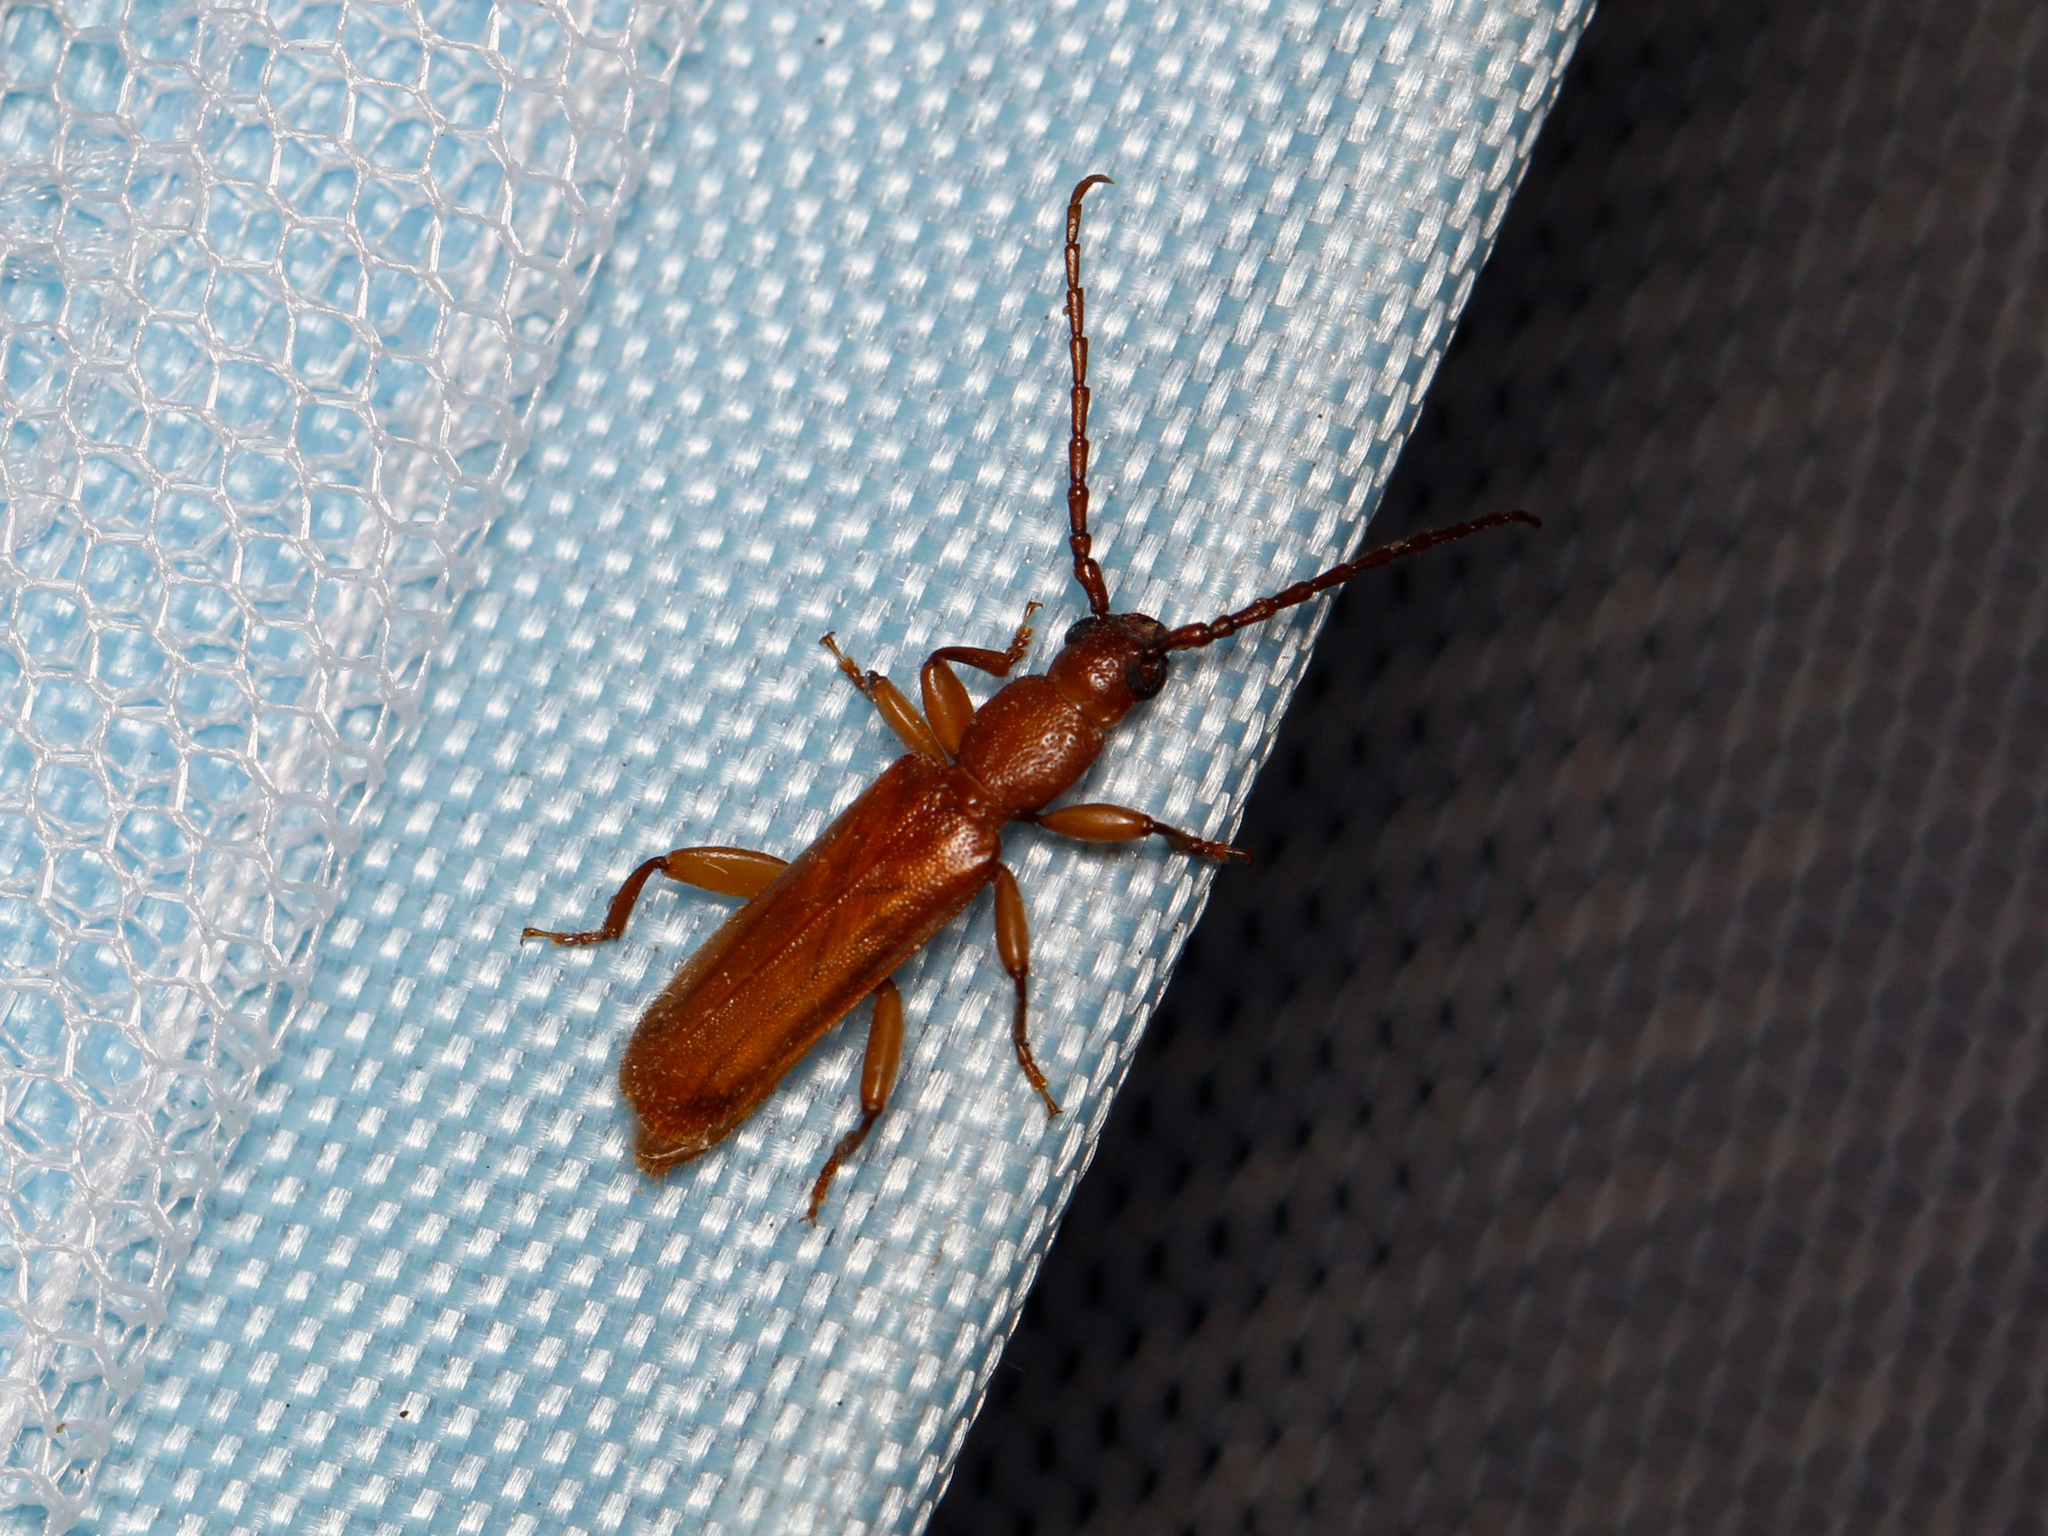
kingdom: Animalia
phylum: Arthropoda
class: Insecta
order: Coleoptera
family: Cerambycidae
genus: Smodicum
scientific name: Smodicum cucujiforme
